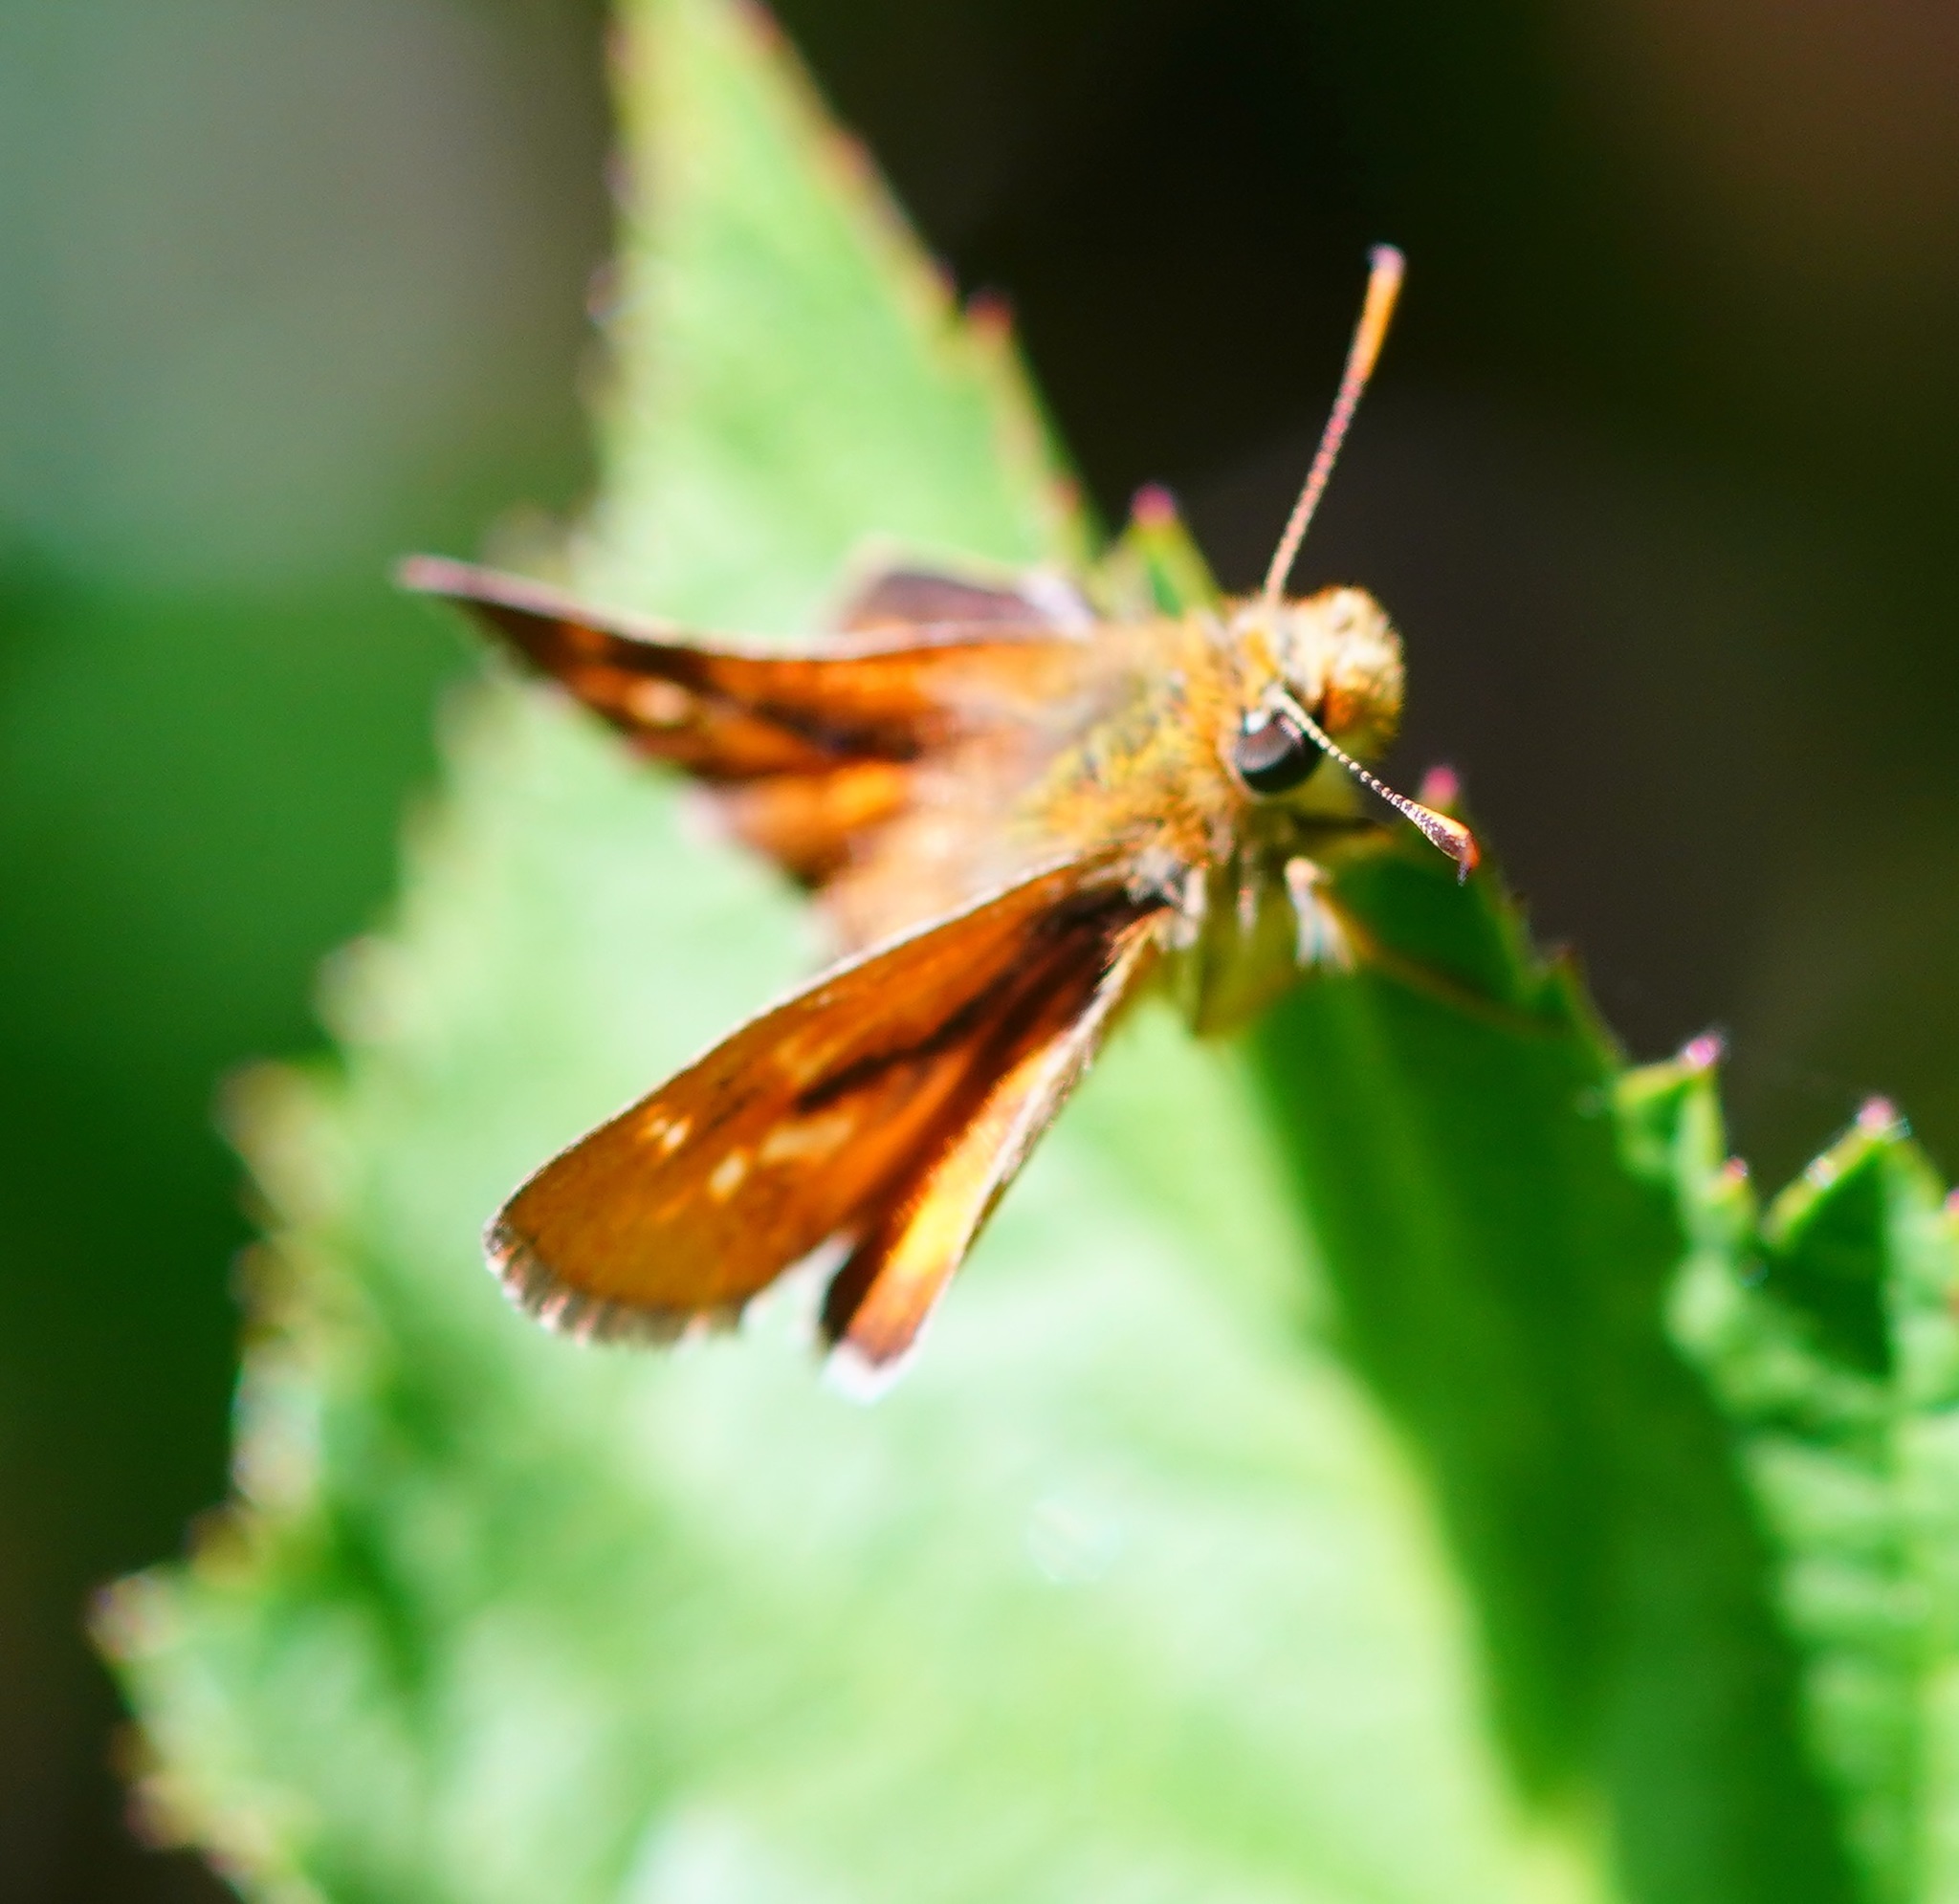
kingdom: Animalia
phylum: Arthropoda
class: Insecta
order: Lepidoptera
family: Hesperiidae
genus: Ochlodes
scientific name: Ochlodes agricola
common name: Rural skipper
